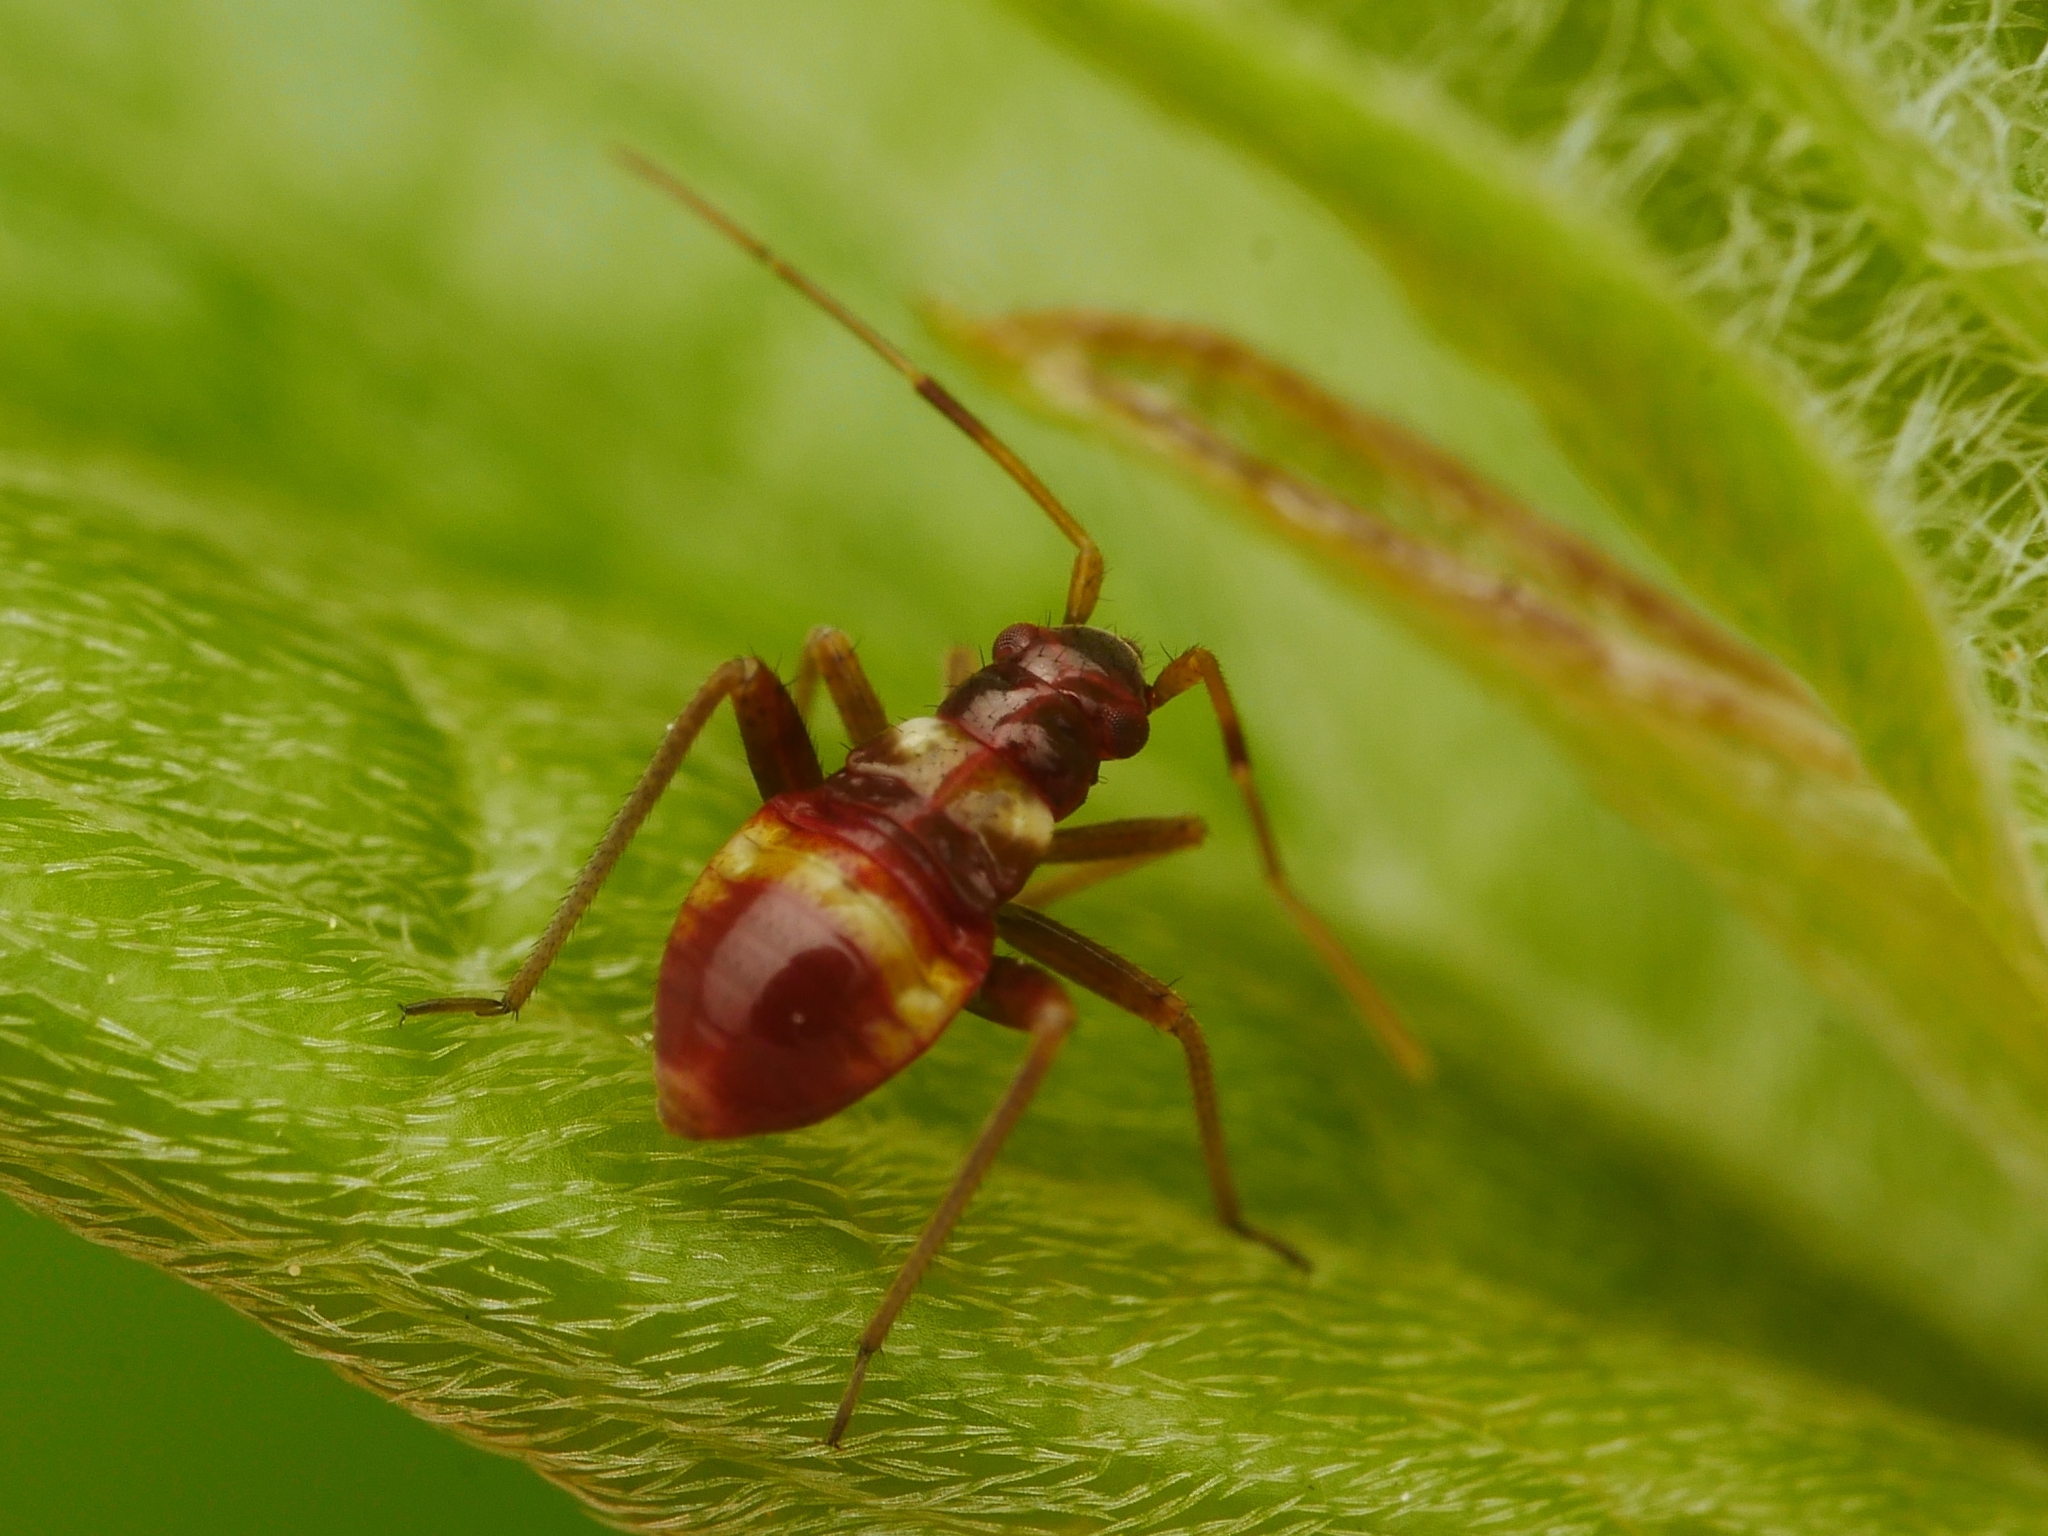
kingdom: Animalia
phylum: Arthropoda
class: Insecta
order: Hemiptera
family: Miridae
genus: Closterotomus
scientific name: Closterotomus biclavatus
